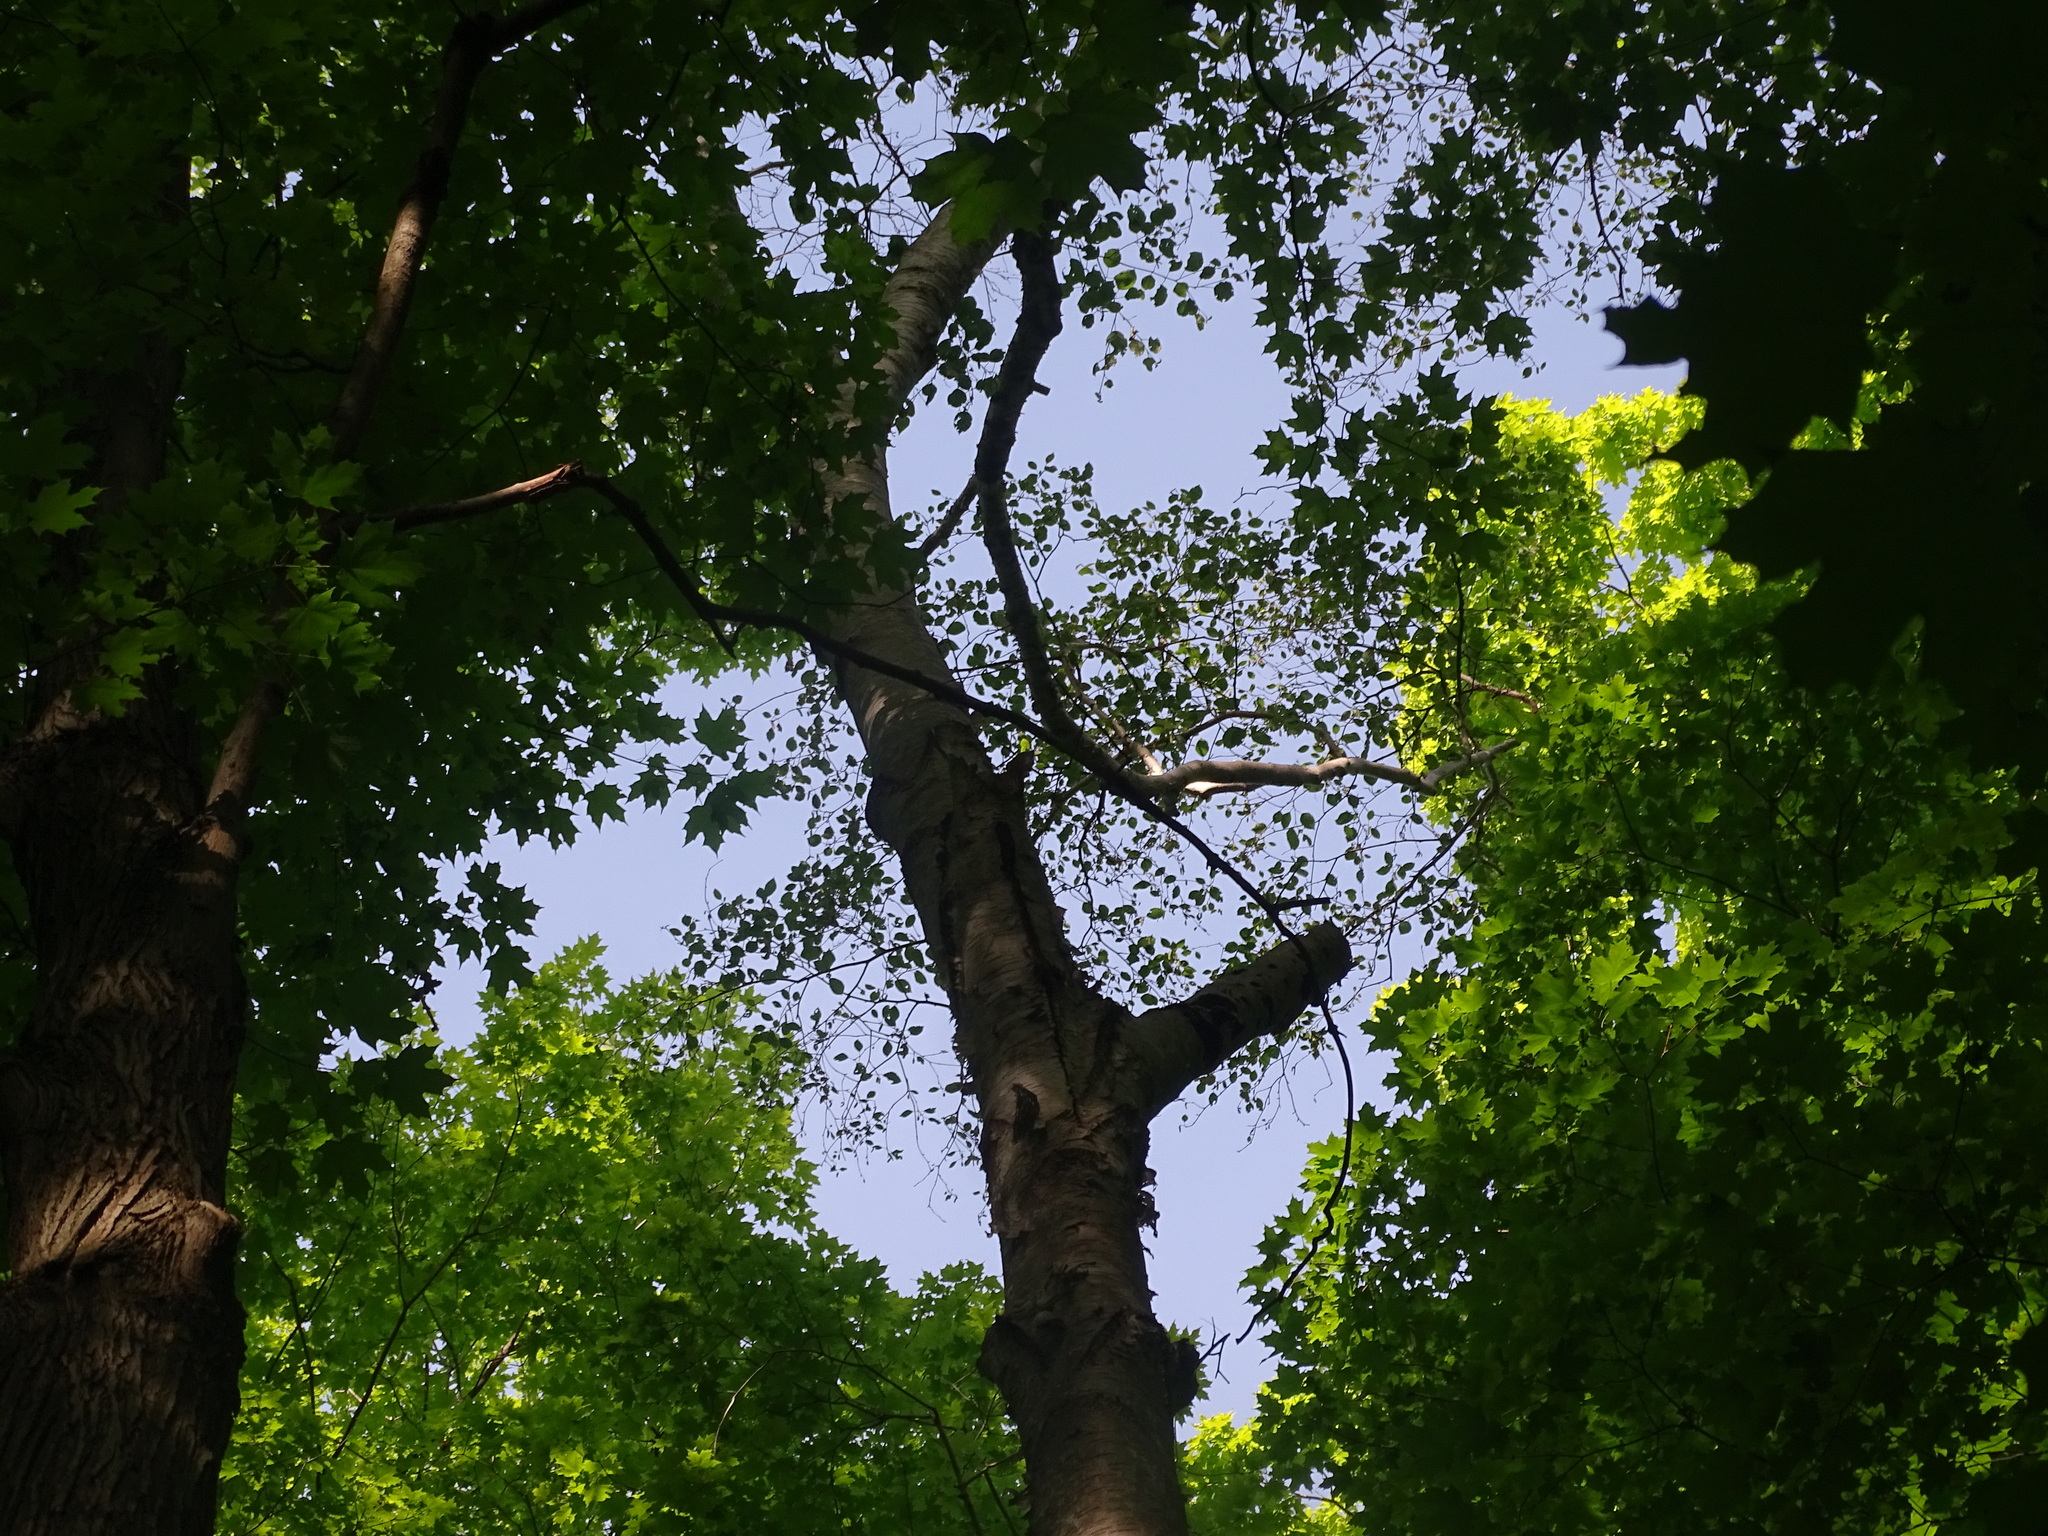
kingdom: Plantae
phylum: Tracheophyta
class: Magnoliopsida
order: Fagales
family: Betulaceae
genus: Betula
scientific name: Betula papyrifera
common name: Paper birch
